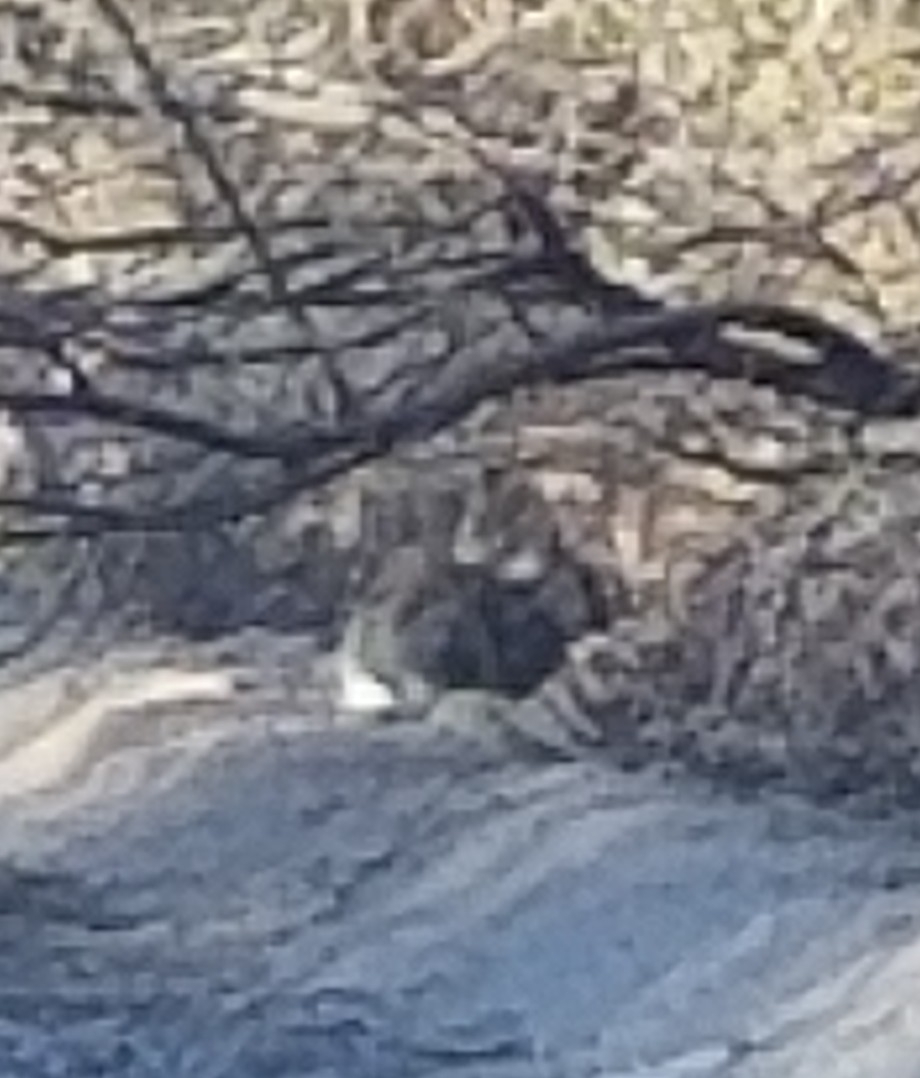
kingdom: Animalia
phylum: Chordata
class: Mammalia
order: Lagomorpha
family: Leporidae
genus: Sylvilagus
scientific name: Sylvilagus audubonii
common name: Desert cottontail
